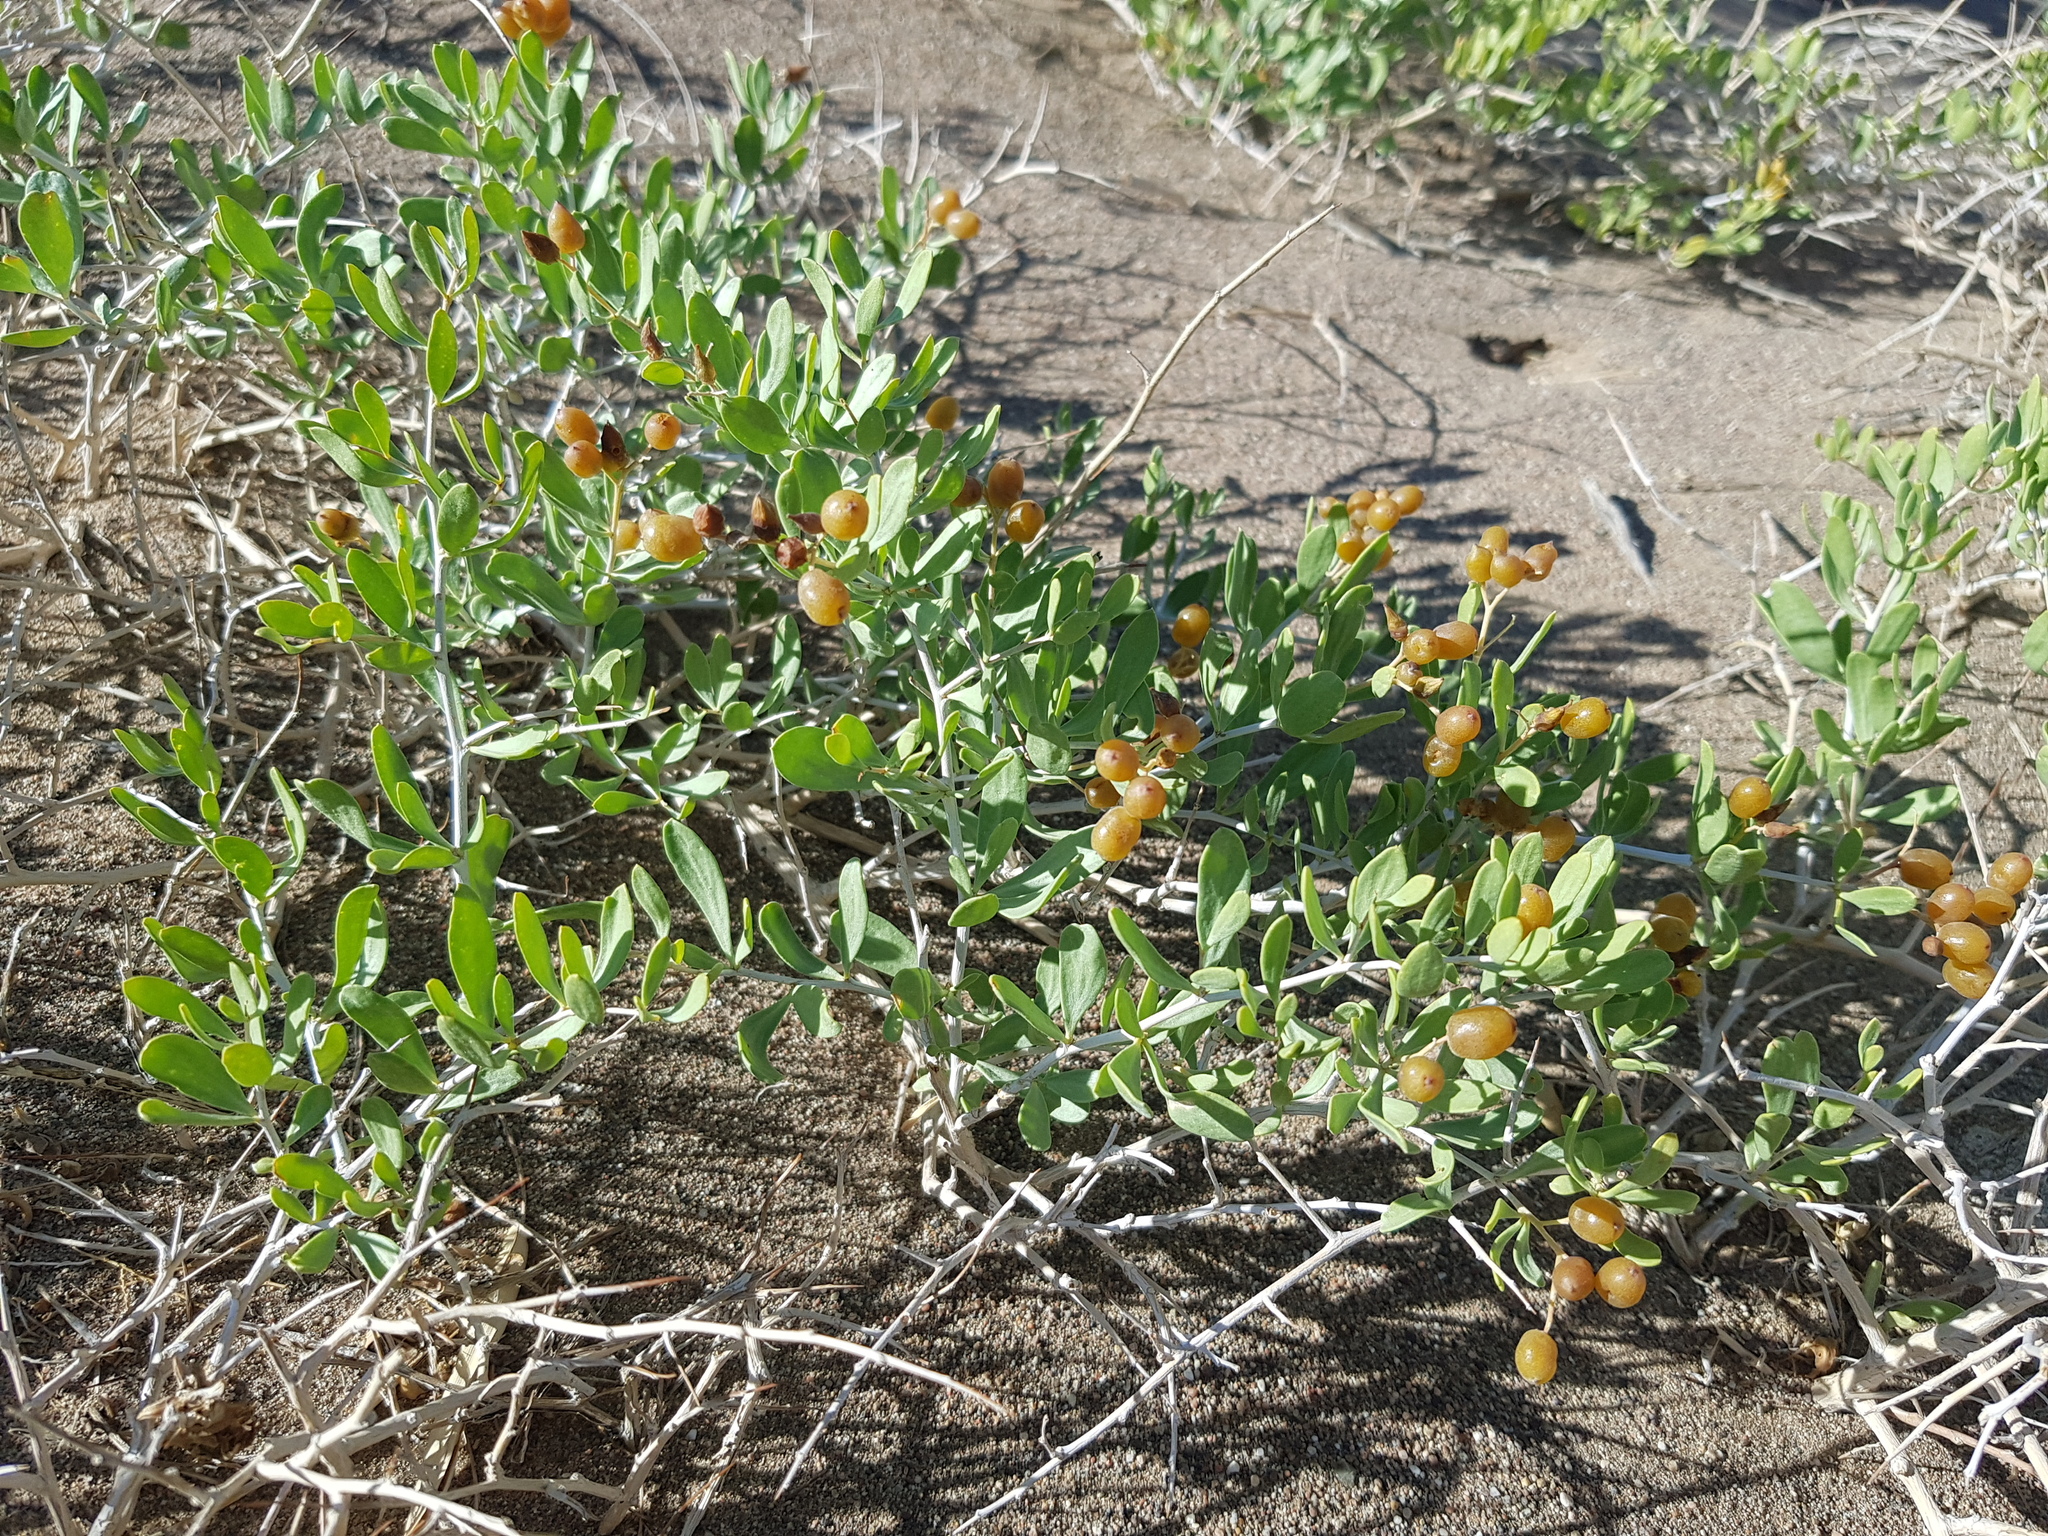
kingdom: Plantae
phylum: Tracheophyta
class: Magnoliopsida
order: Sapindales
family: Nitrariaceae
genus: Nitraria
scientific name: Nitraria sibirica
